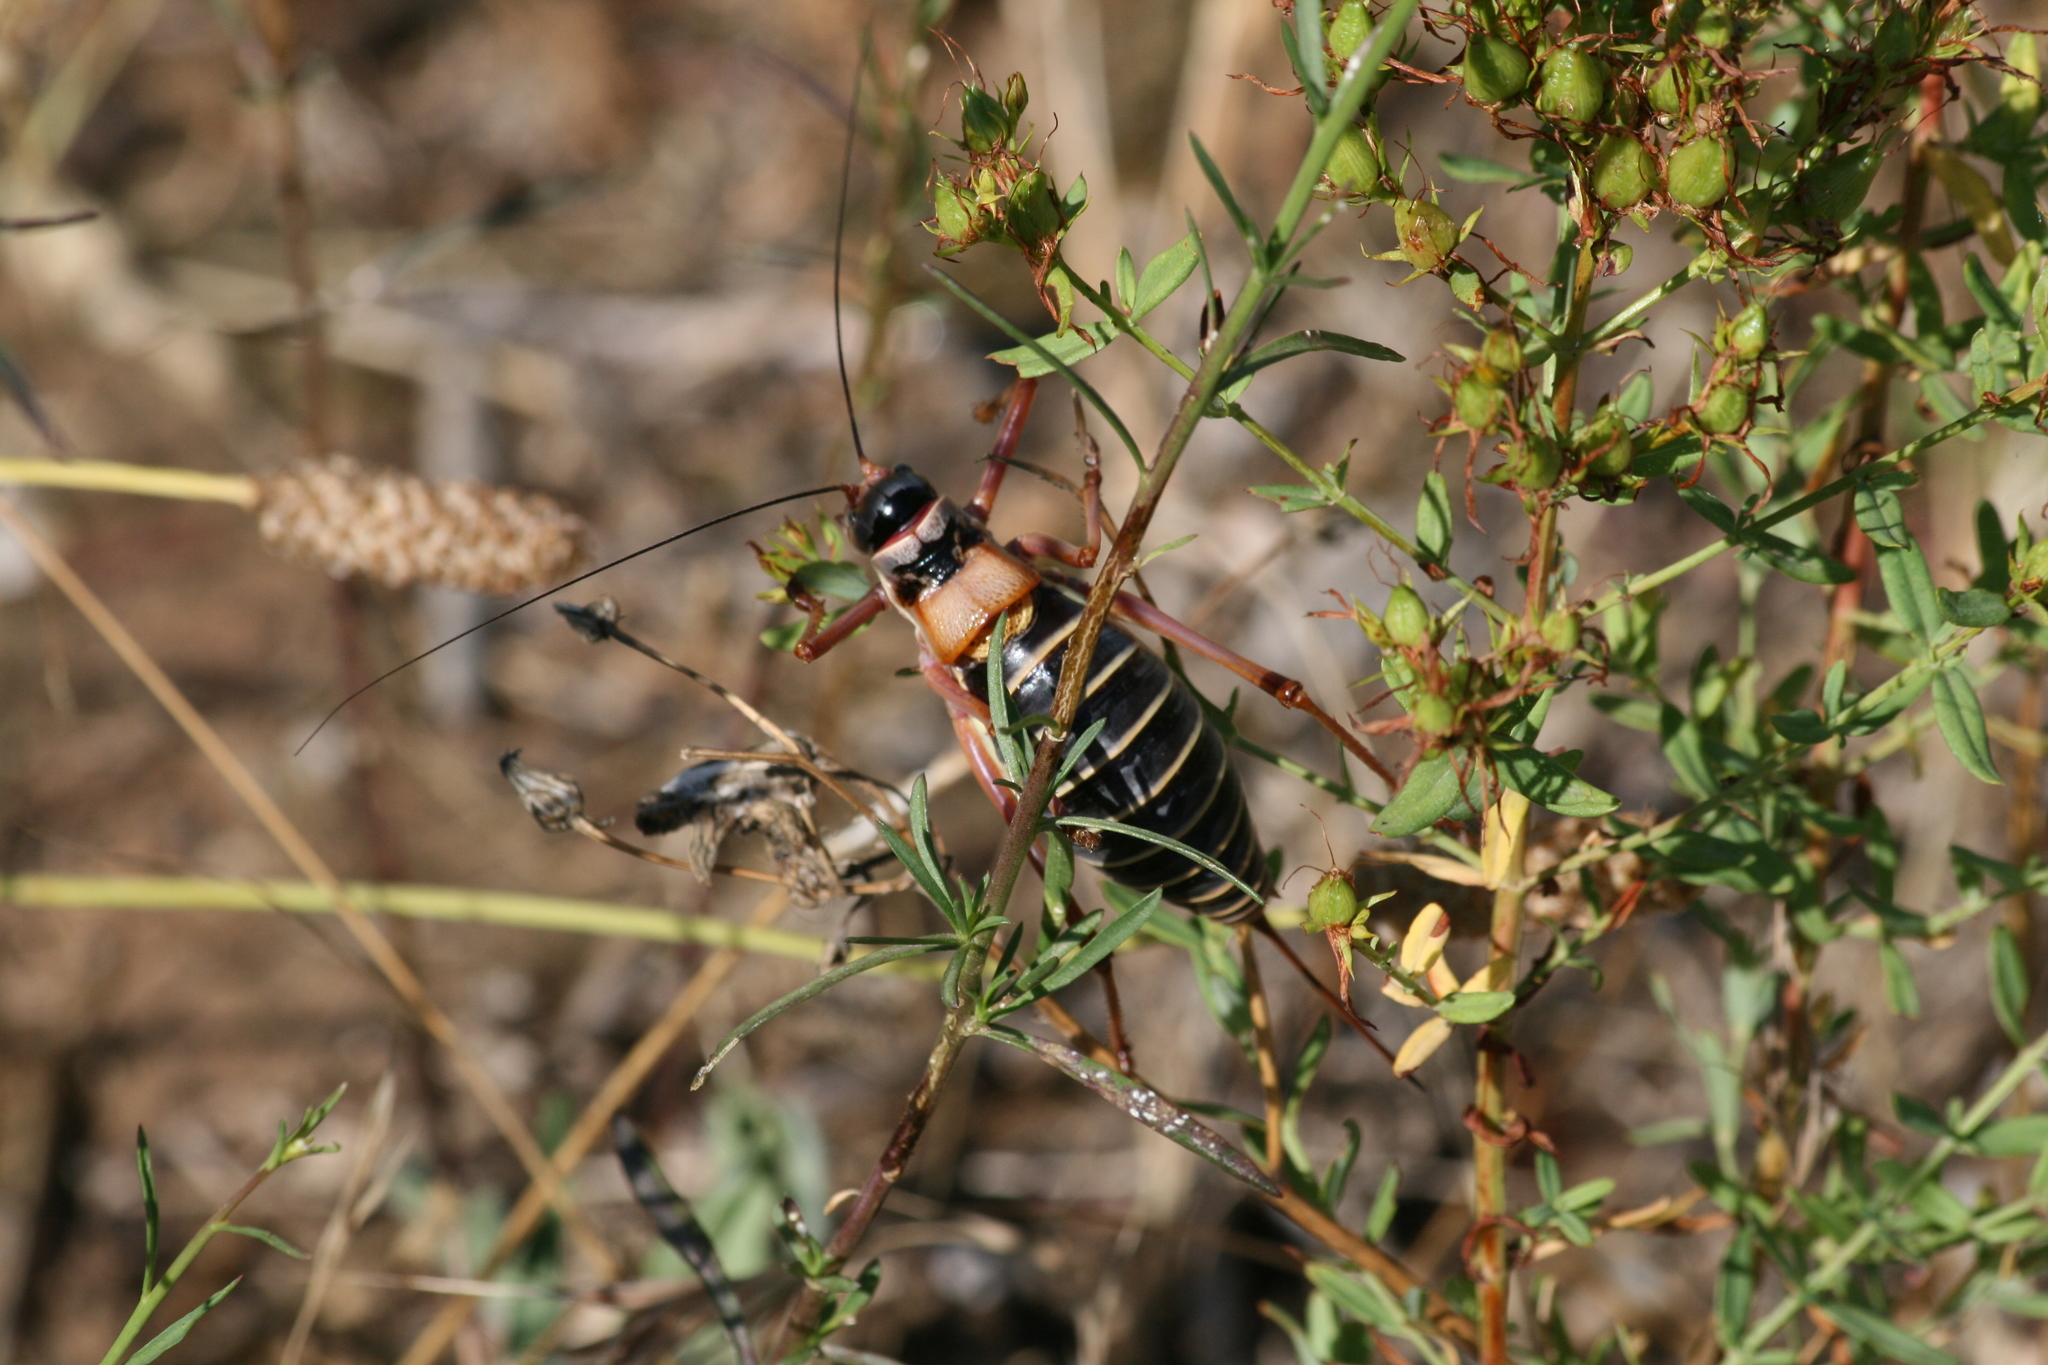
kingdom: Animalia
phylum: Arthropoda
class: Insecta
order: Orthoptera
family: Tettigoniidae
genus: Ephippiger
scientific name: Ephippiger diurnus
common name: Western saddle bush-cricket
